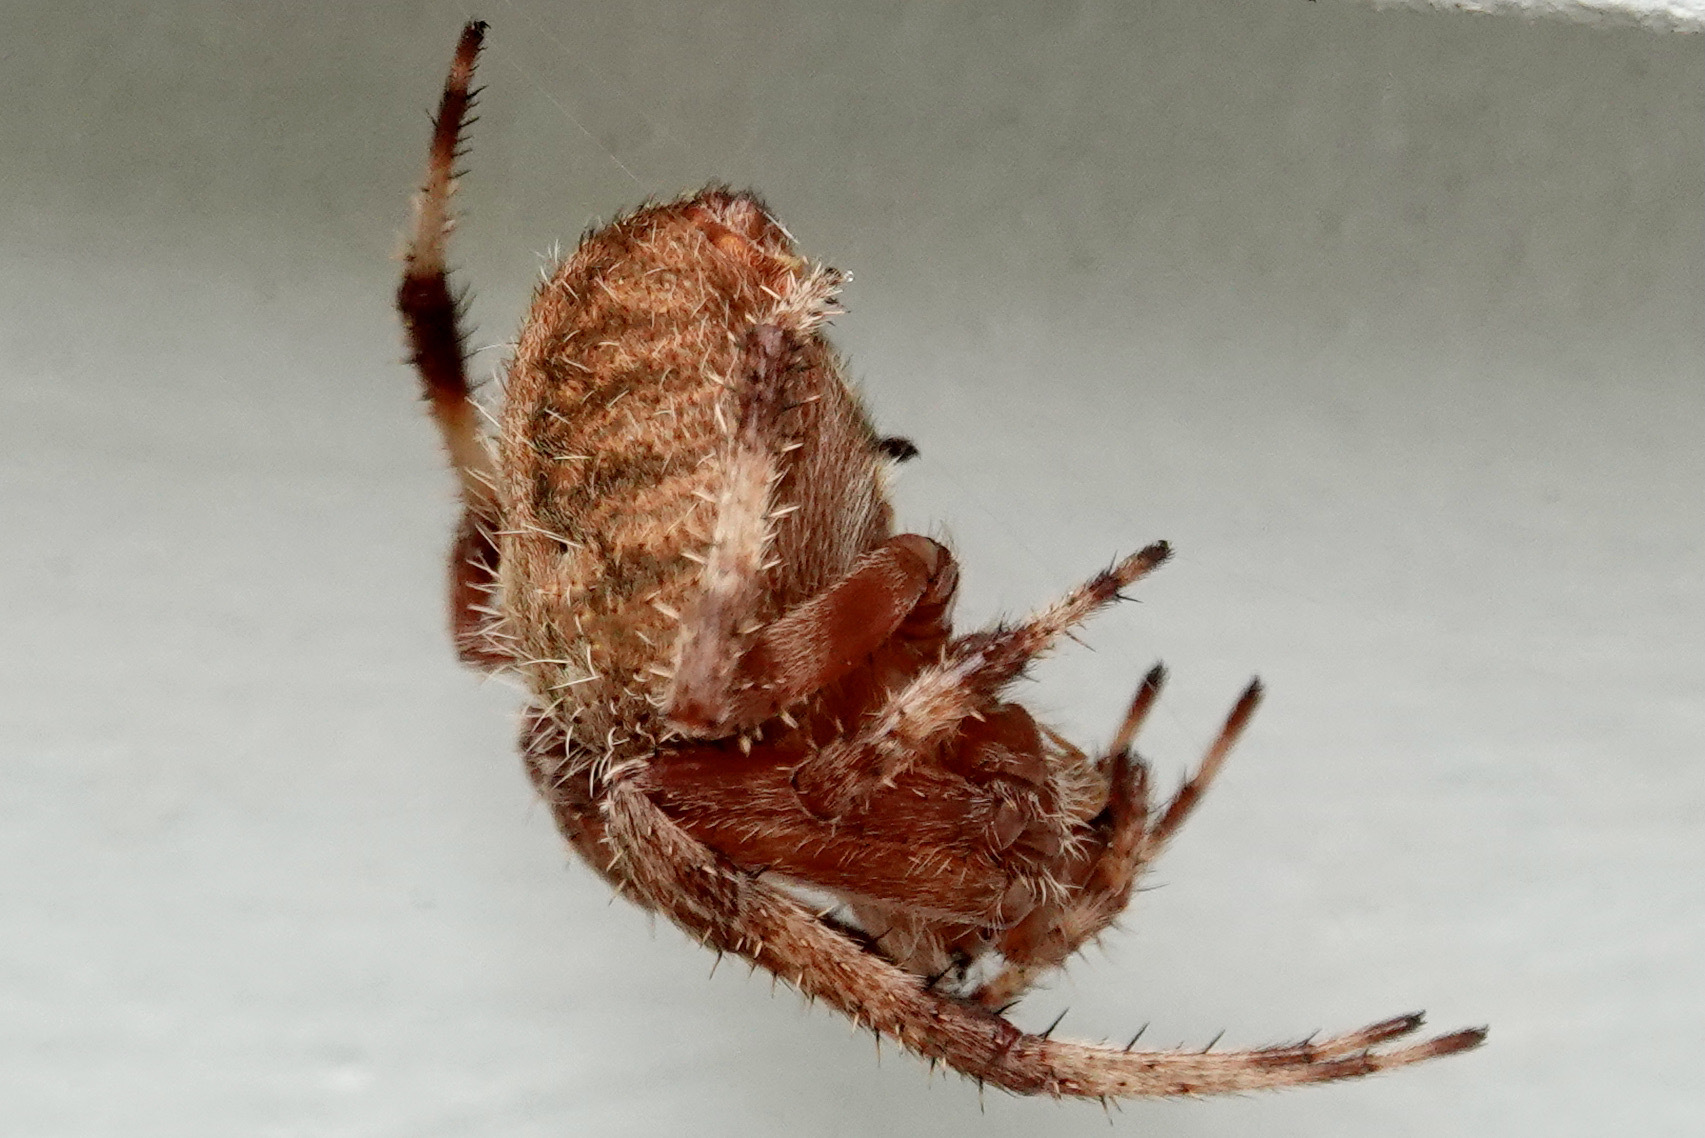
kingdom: Animalia
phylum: Arthropoda
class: Arachnida
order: Araneae
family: Araneidae
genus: Neoscona
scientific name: Neoscona crucifera
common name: Spotted orbweaver
